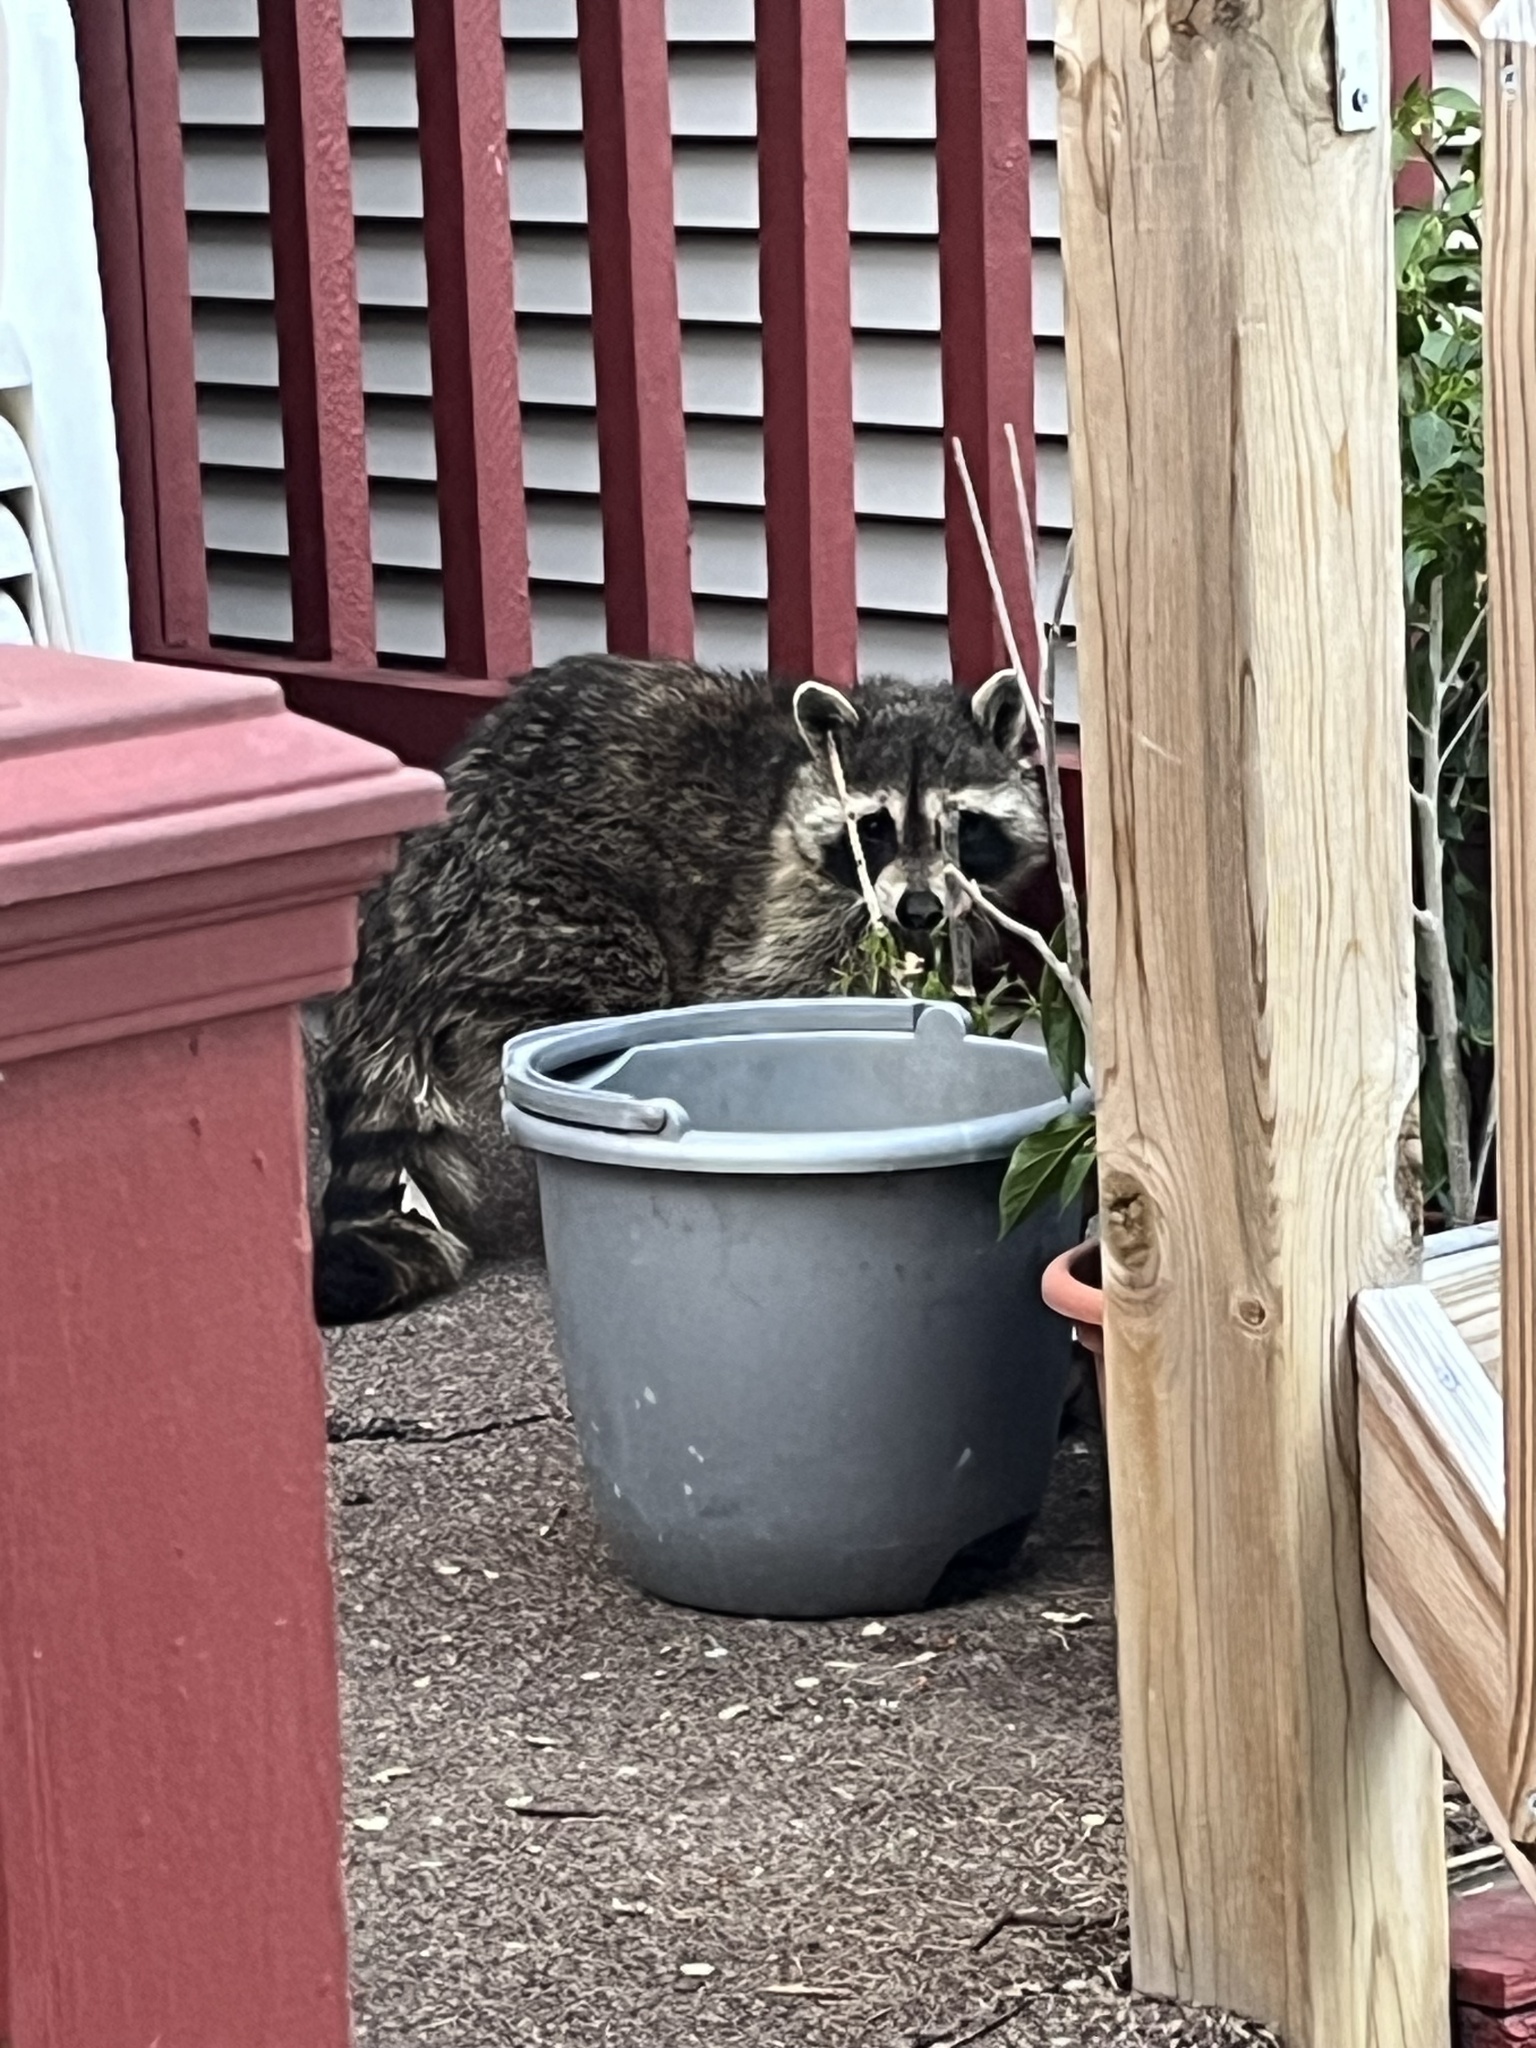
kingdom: Animalia
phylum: Chordata
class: Mammalia
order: Carnivora
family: Procyonidae
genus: Procyon
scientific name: Procyon lotor
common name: Raccoon
